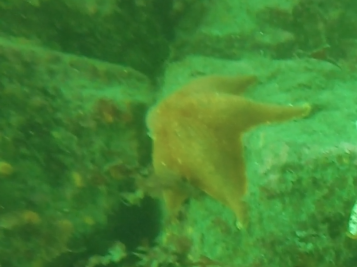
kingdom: Animalia
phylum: Echinodermata
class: Asteroidea
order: Valvatida
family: Asterinidae
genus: Patiria
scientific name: Patiria miniata
